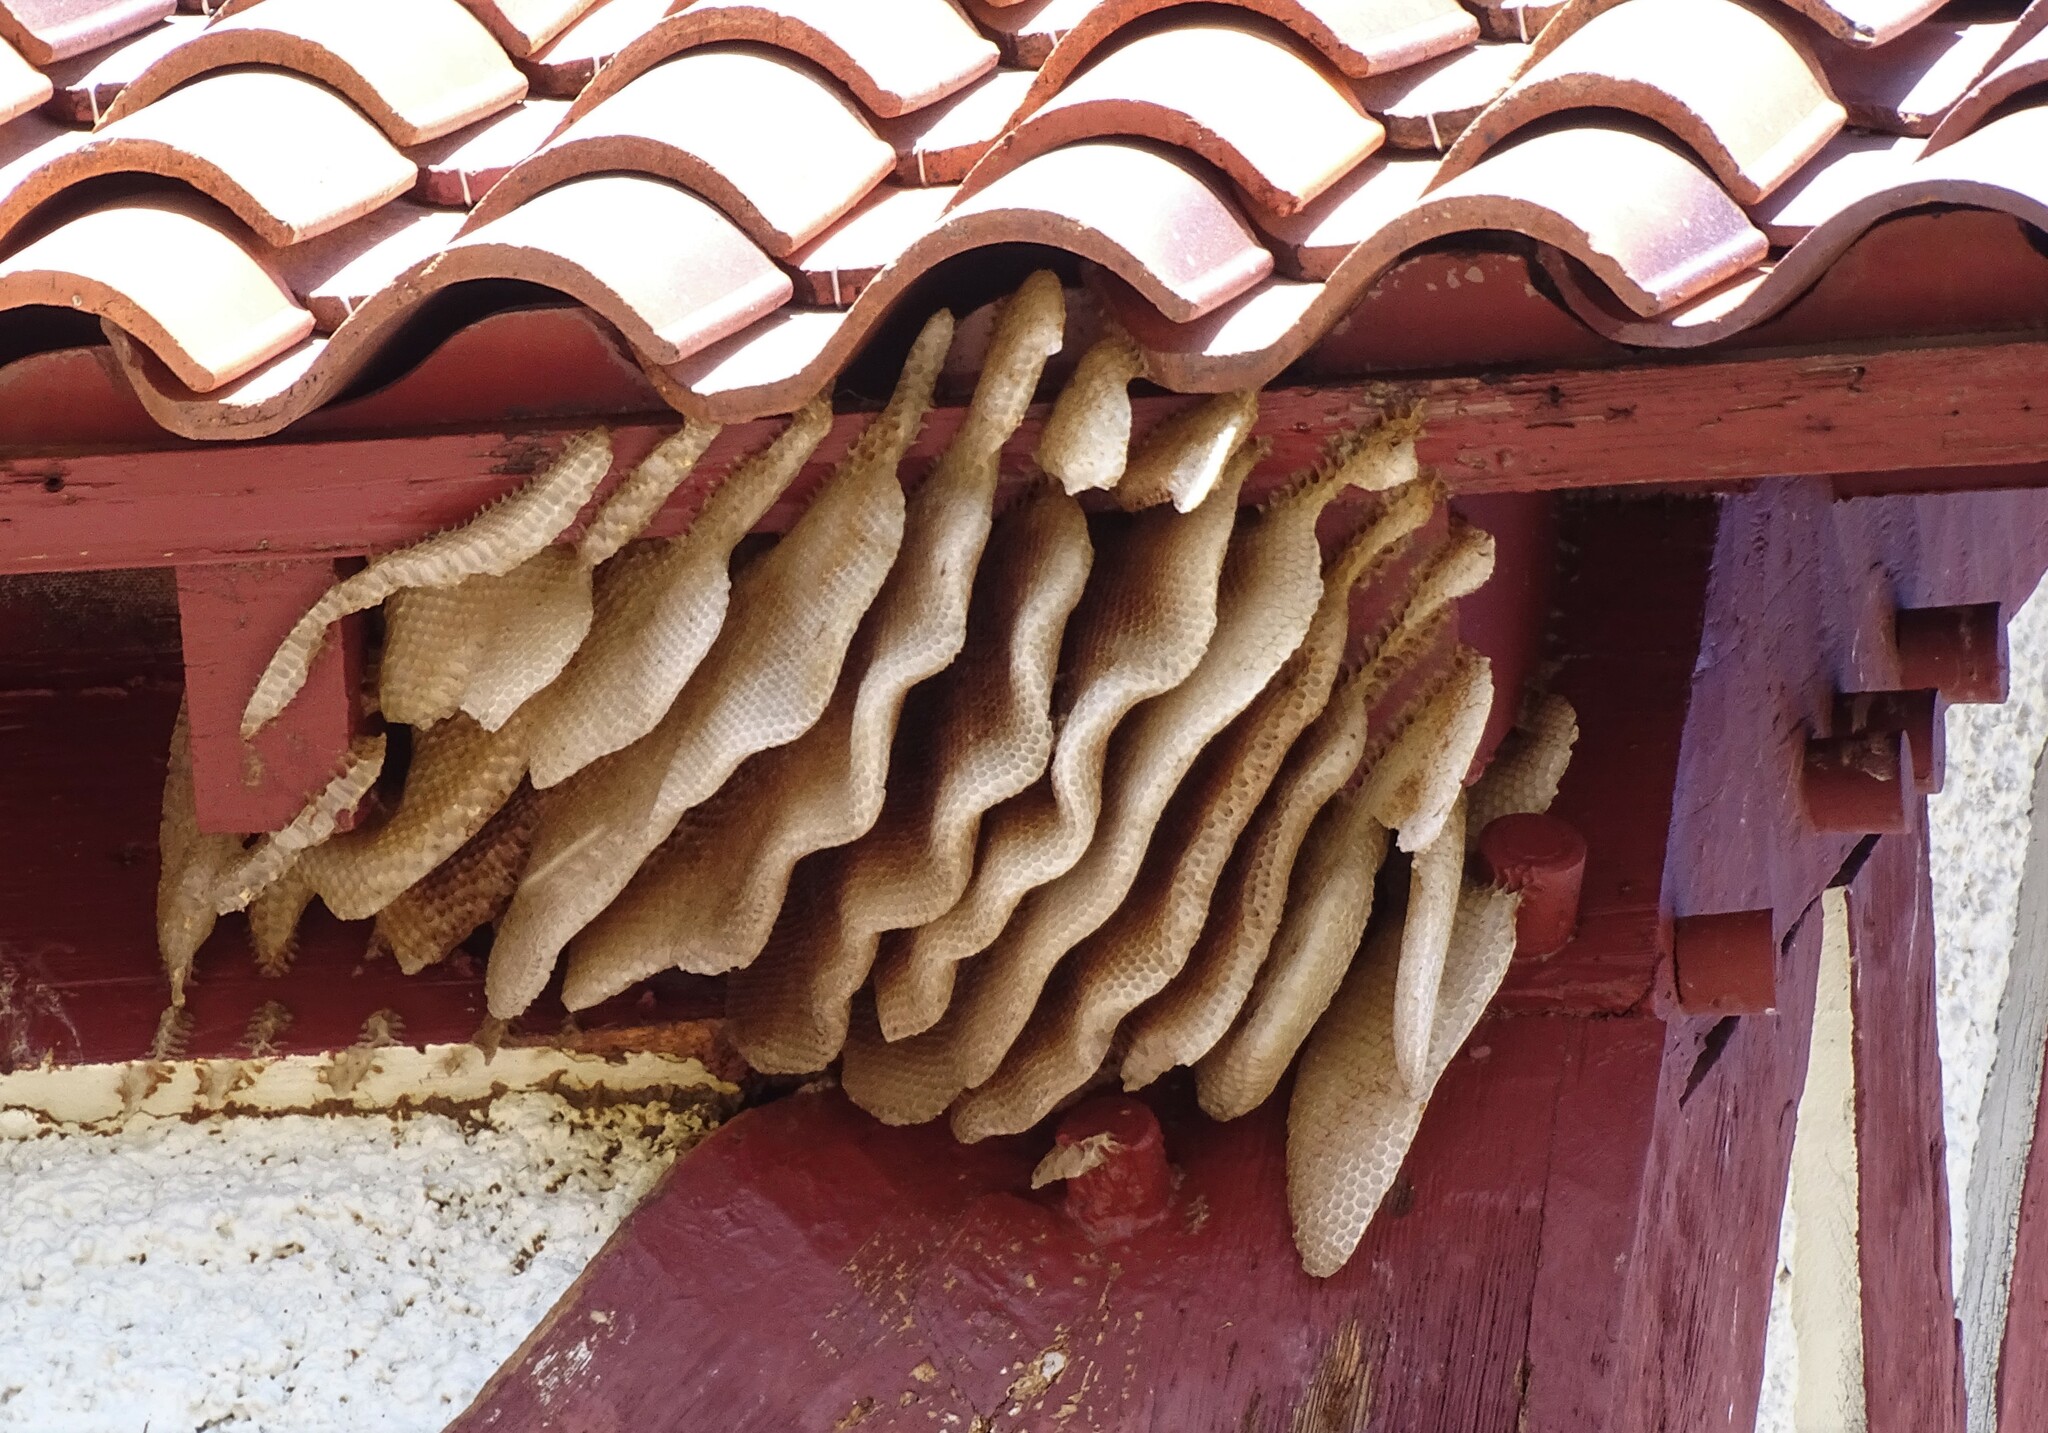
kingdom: Animalia
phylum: Arthropoda
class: Insecta
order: Hymenoptera
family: Apidae
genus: Apis
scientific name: Apis mellifera
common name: Honey bee
